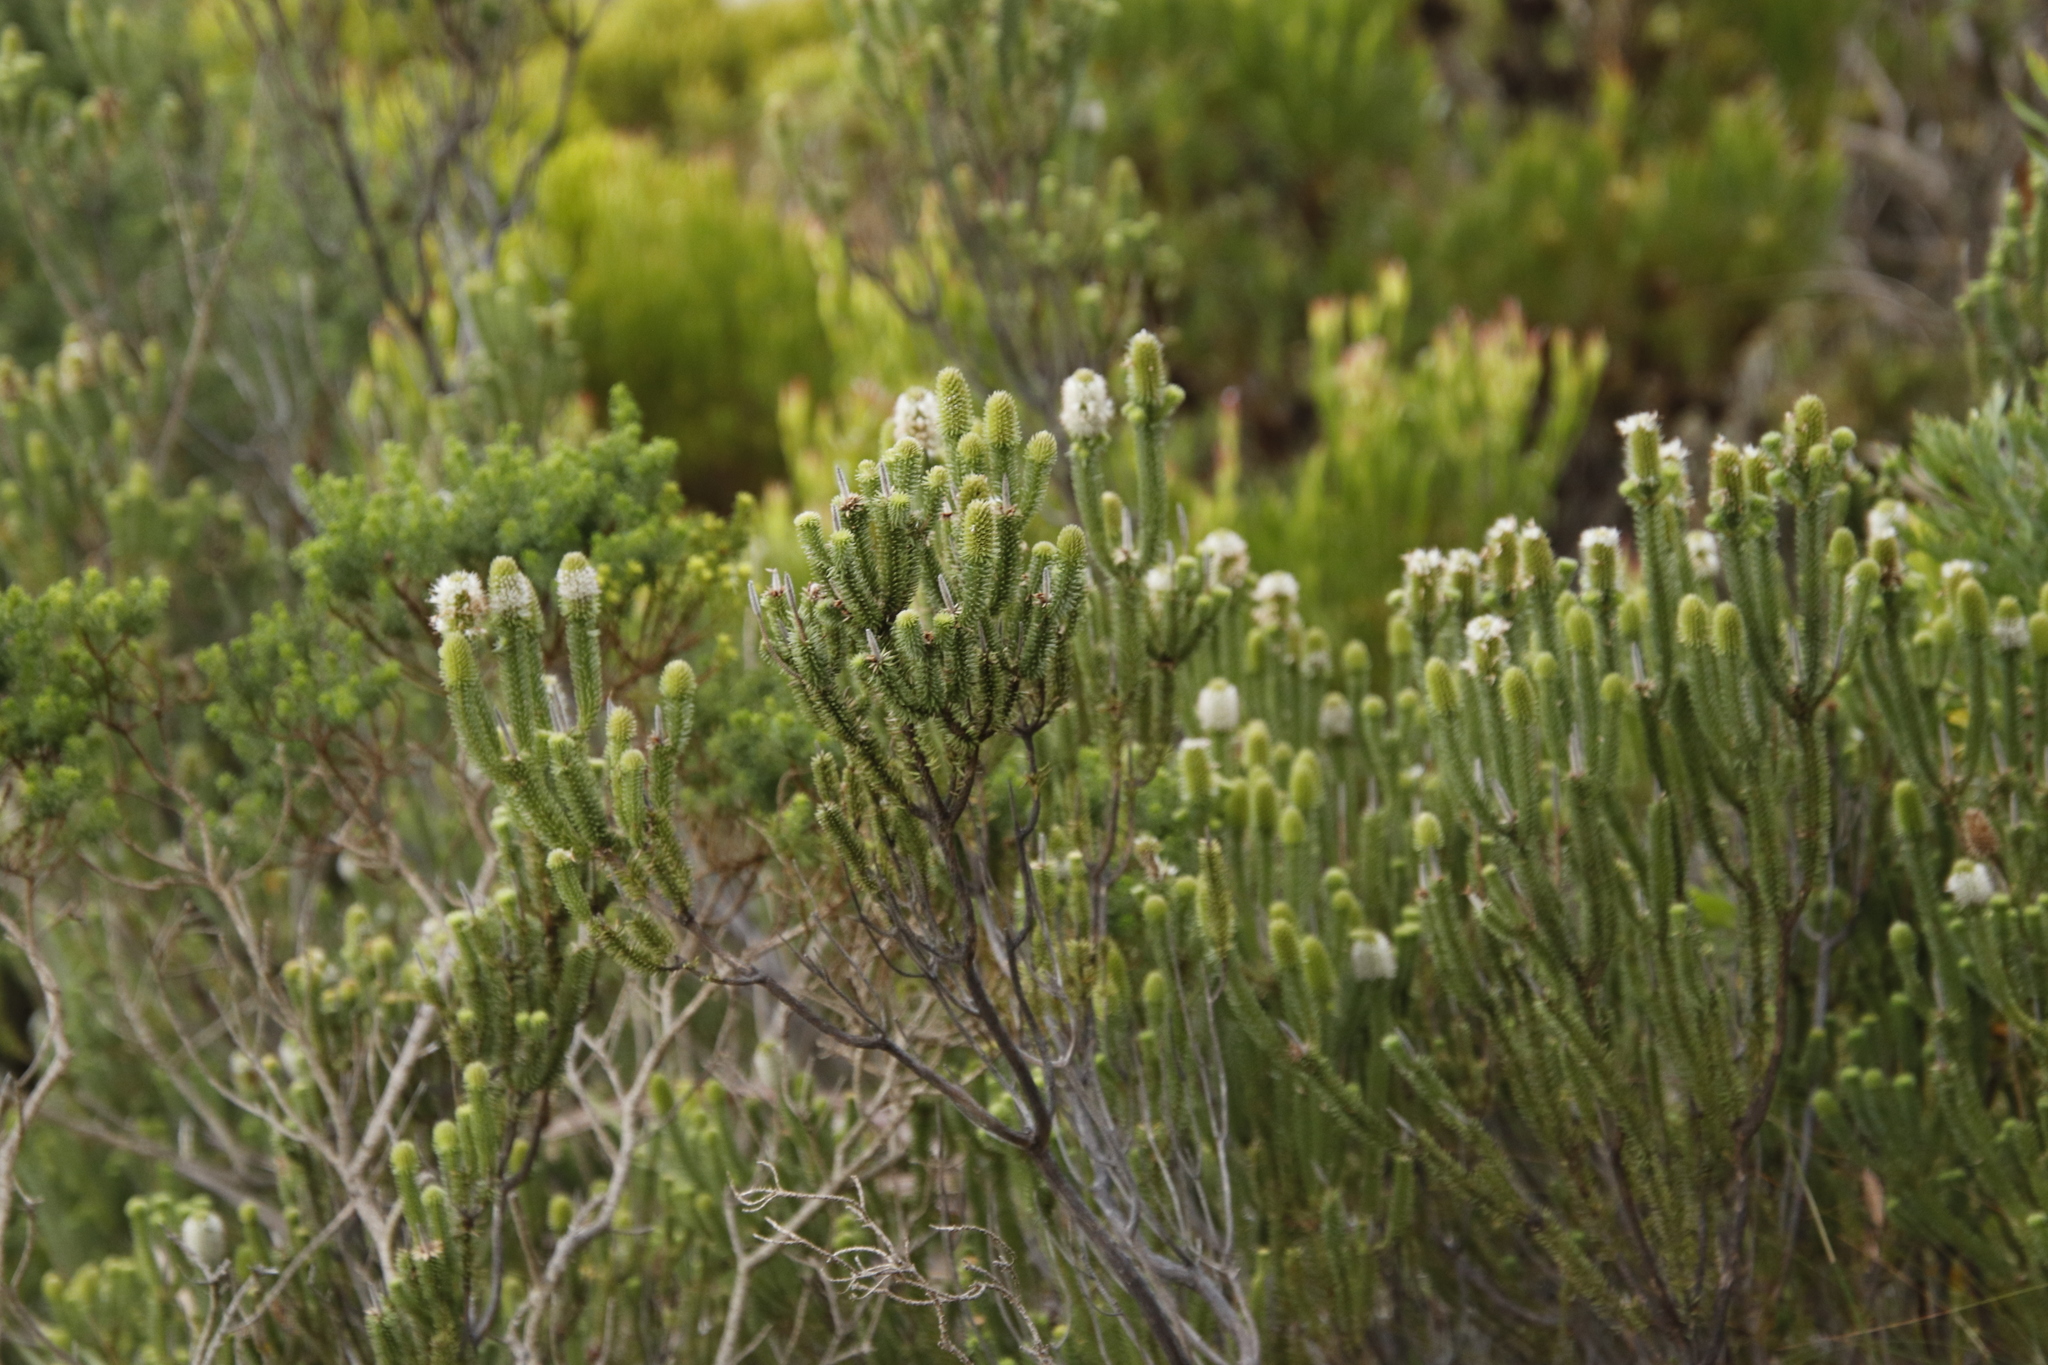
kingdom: Plantae
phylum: Tracheophyta
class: Magnoliopsida
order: Lamiales
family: Stilbaceae
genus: Stilbe
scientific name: Stilbe vestita
